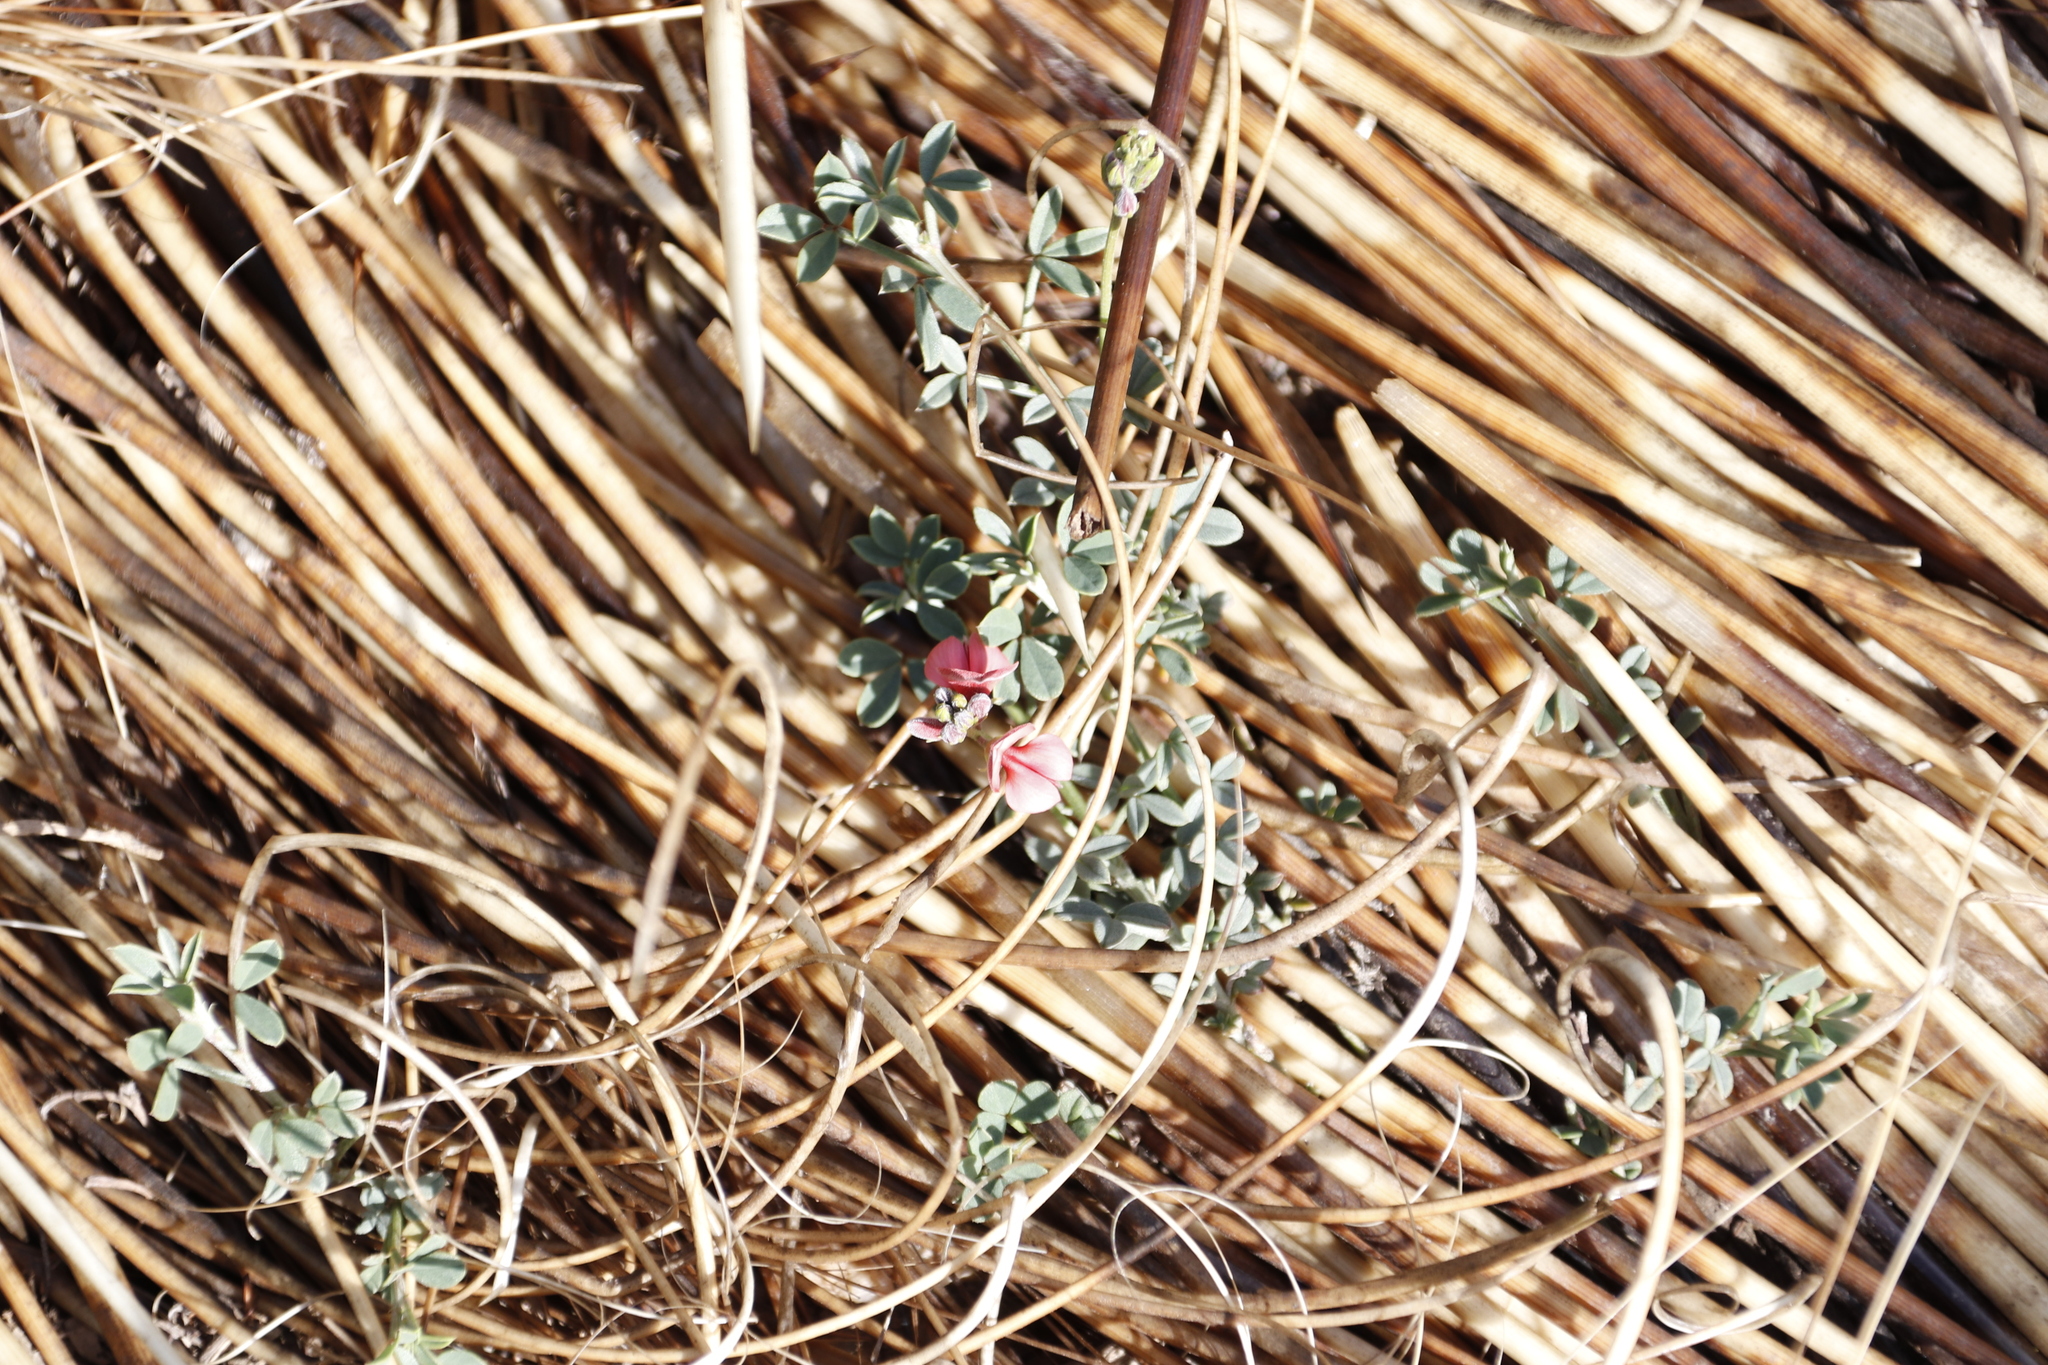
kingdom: Plantae
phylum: Tracheophyta
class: Magnoliopsida
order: Fabales
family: Fabaceae
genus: Indigofera
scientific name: Indigofera heterophylla
